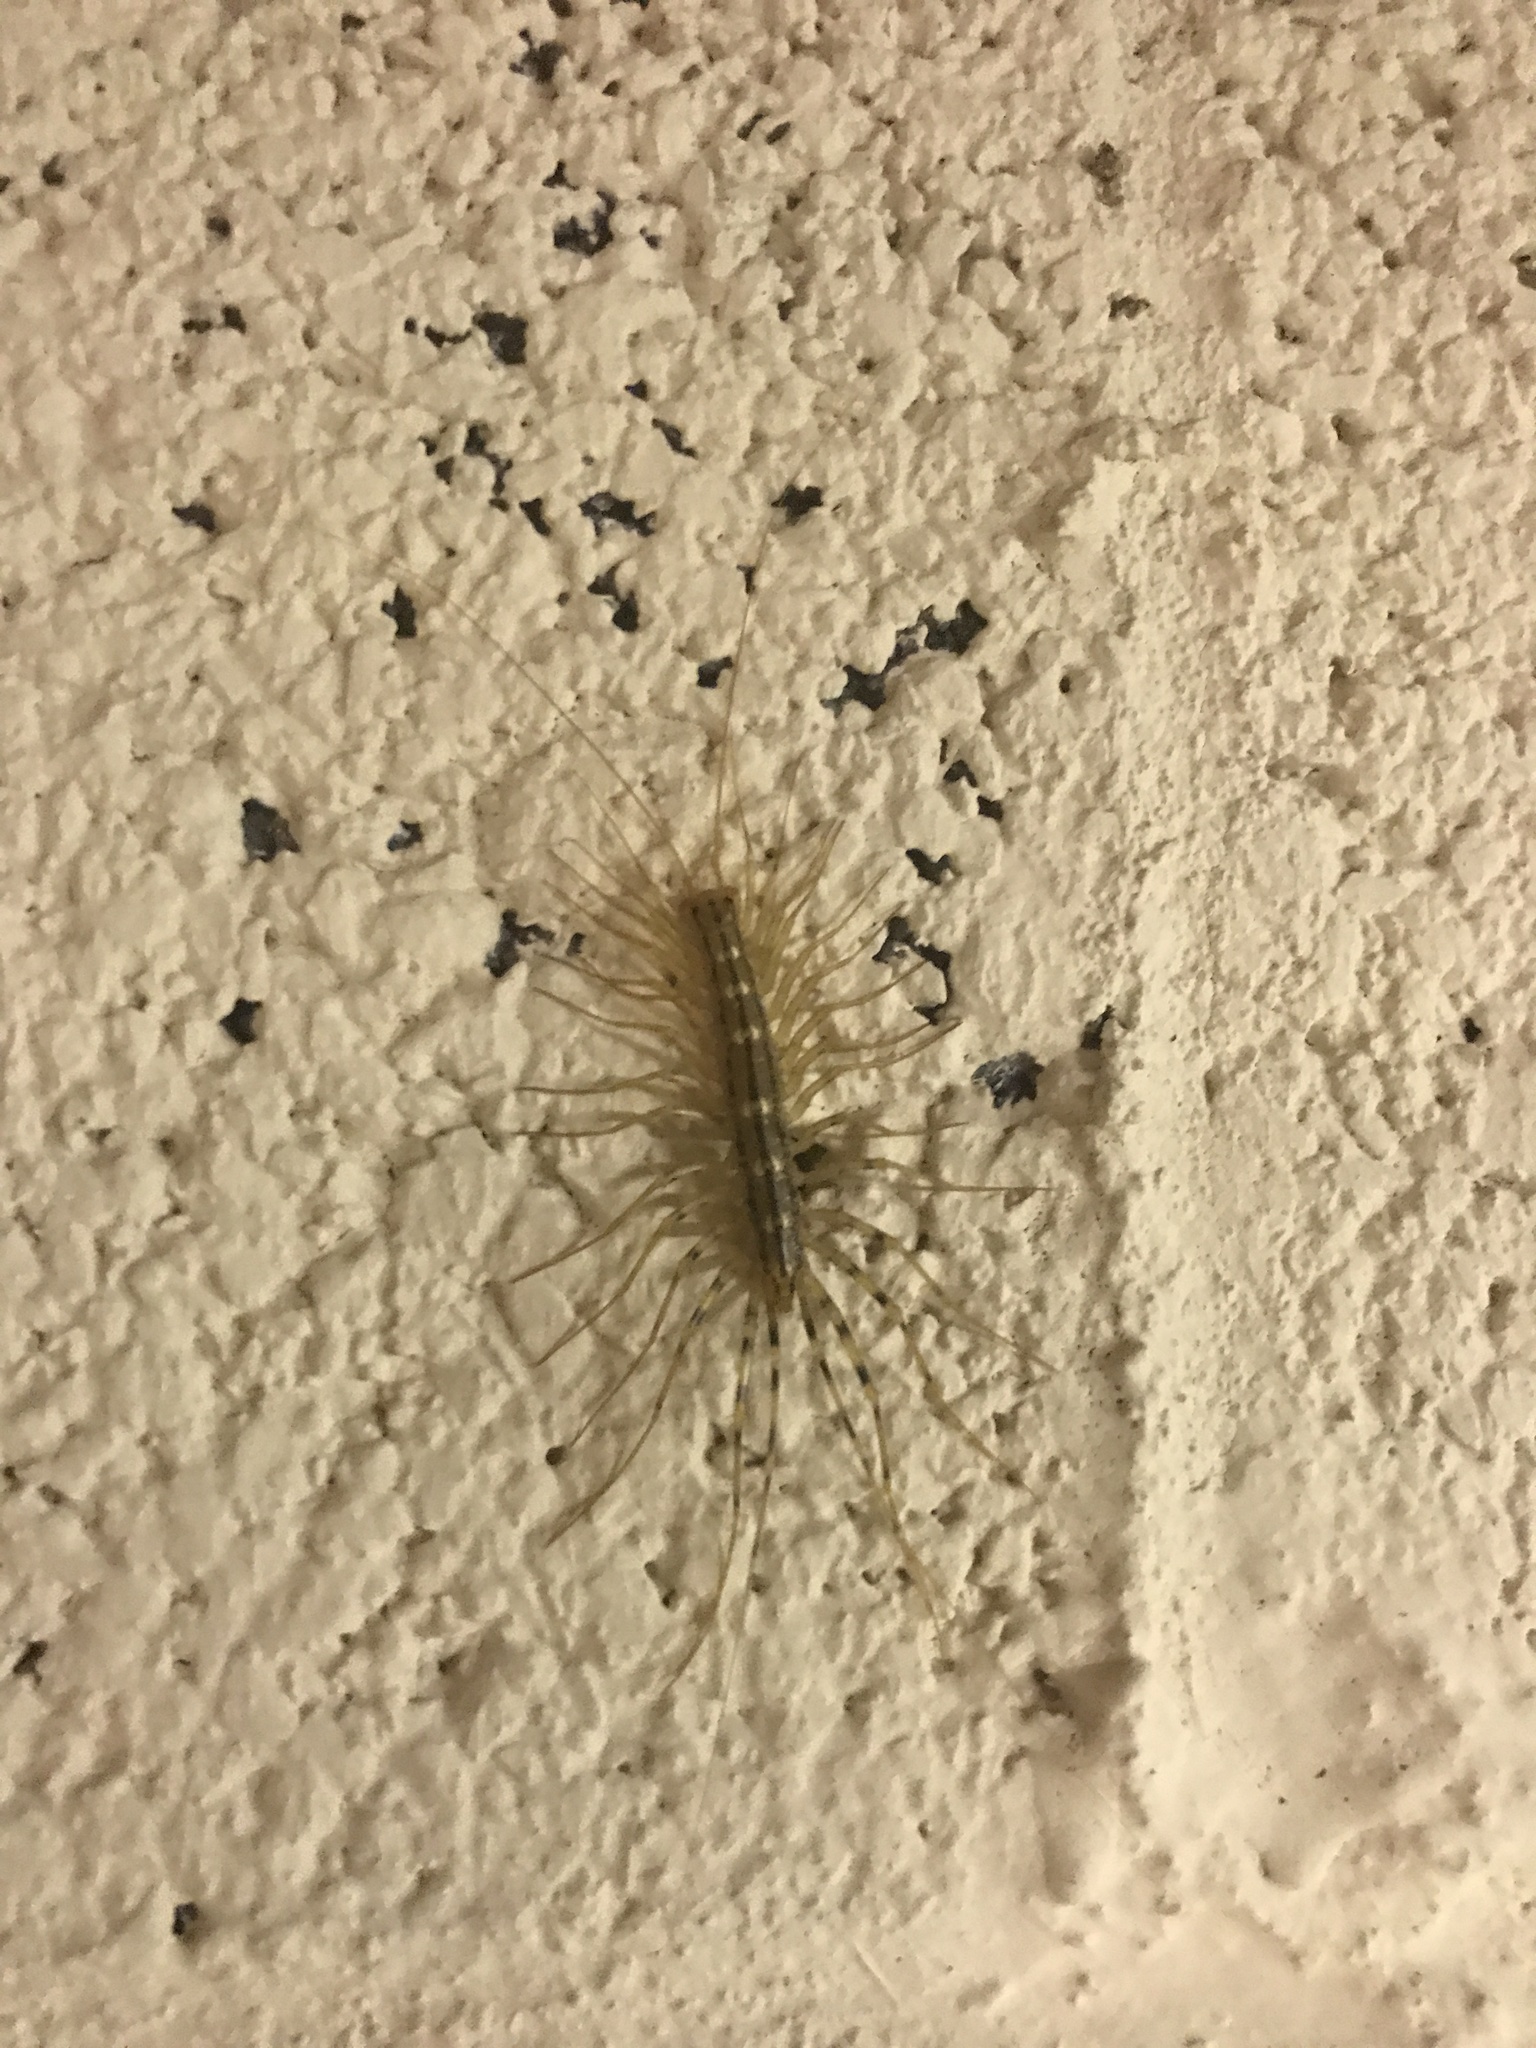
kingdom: Animalia
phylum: Arthropoda
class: Chilopoda
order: Scutigeromorpha
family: Scutigeridae
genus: Scutigera
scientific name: Scutigera coleoptrata
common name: House centipede
